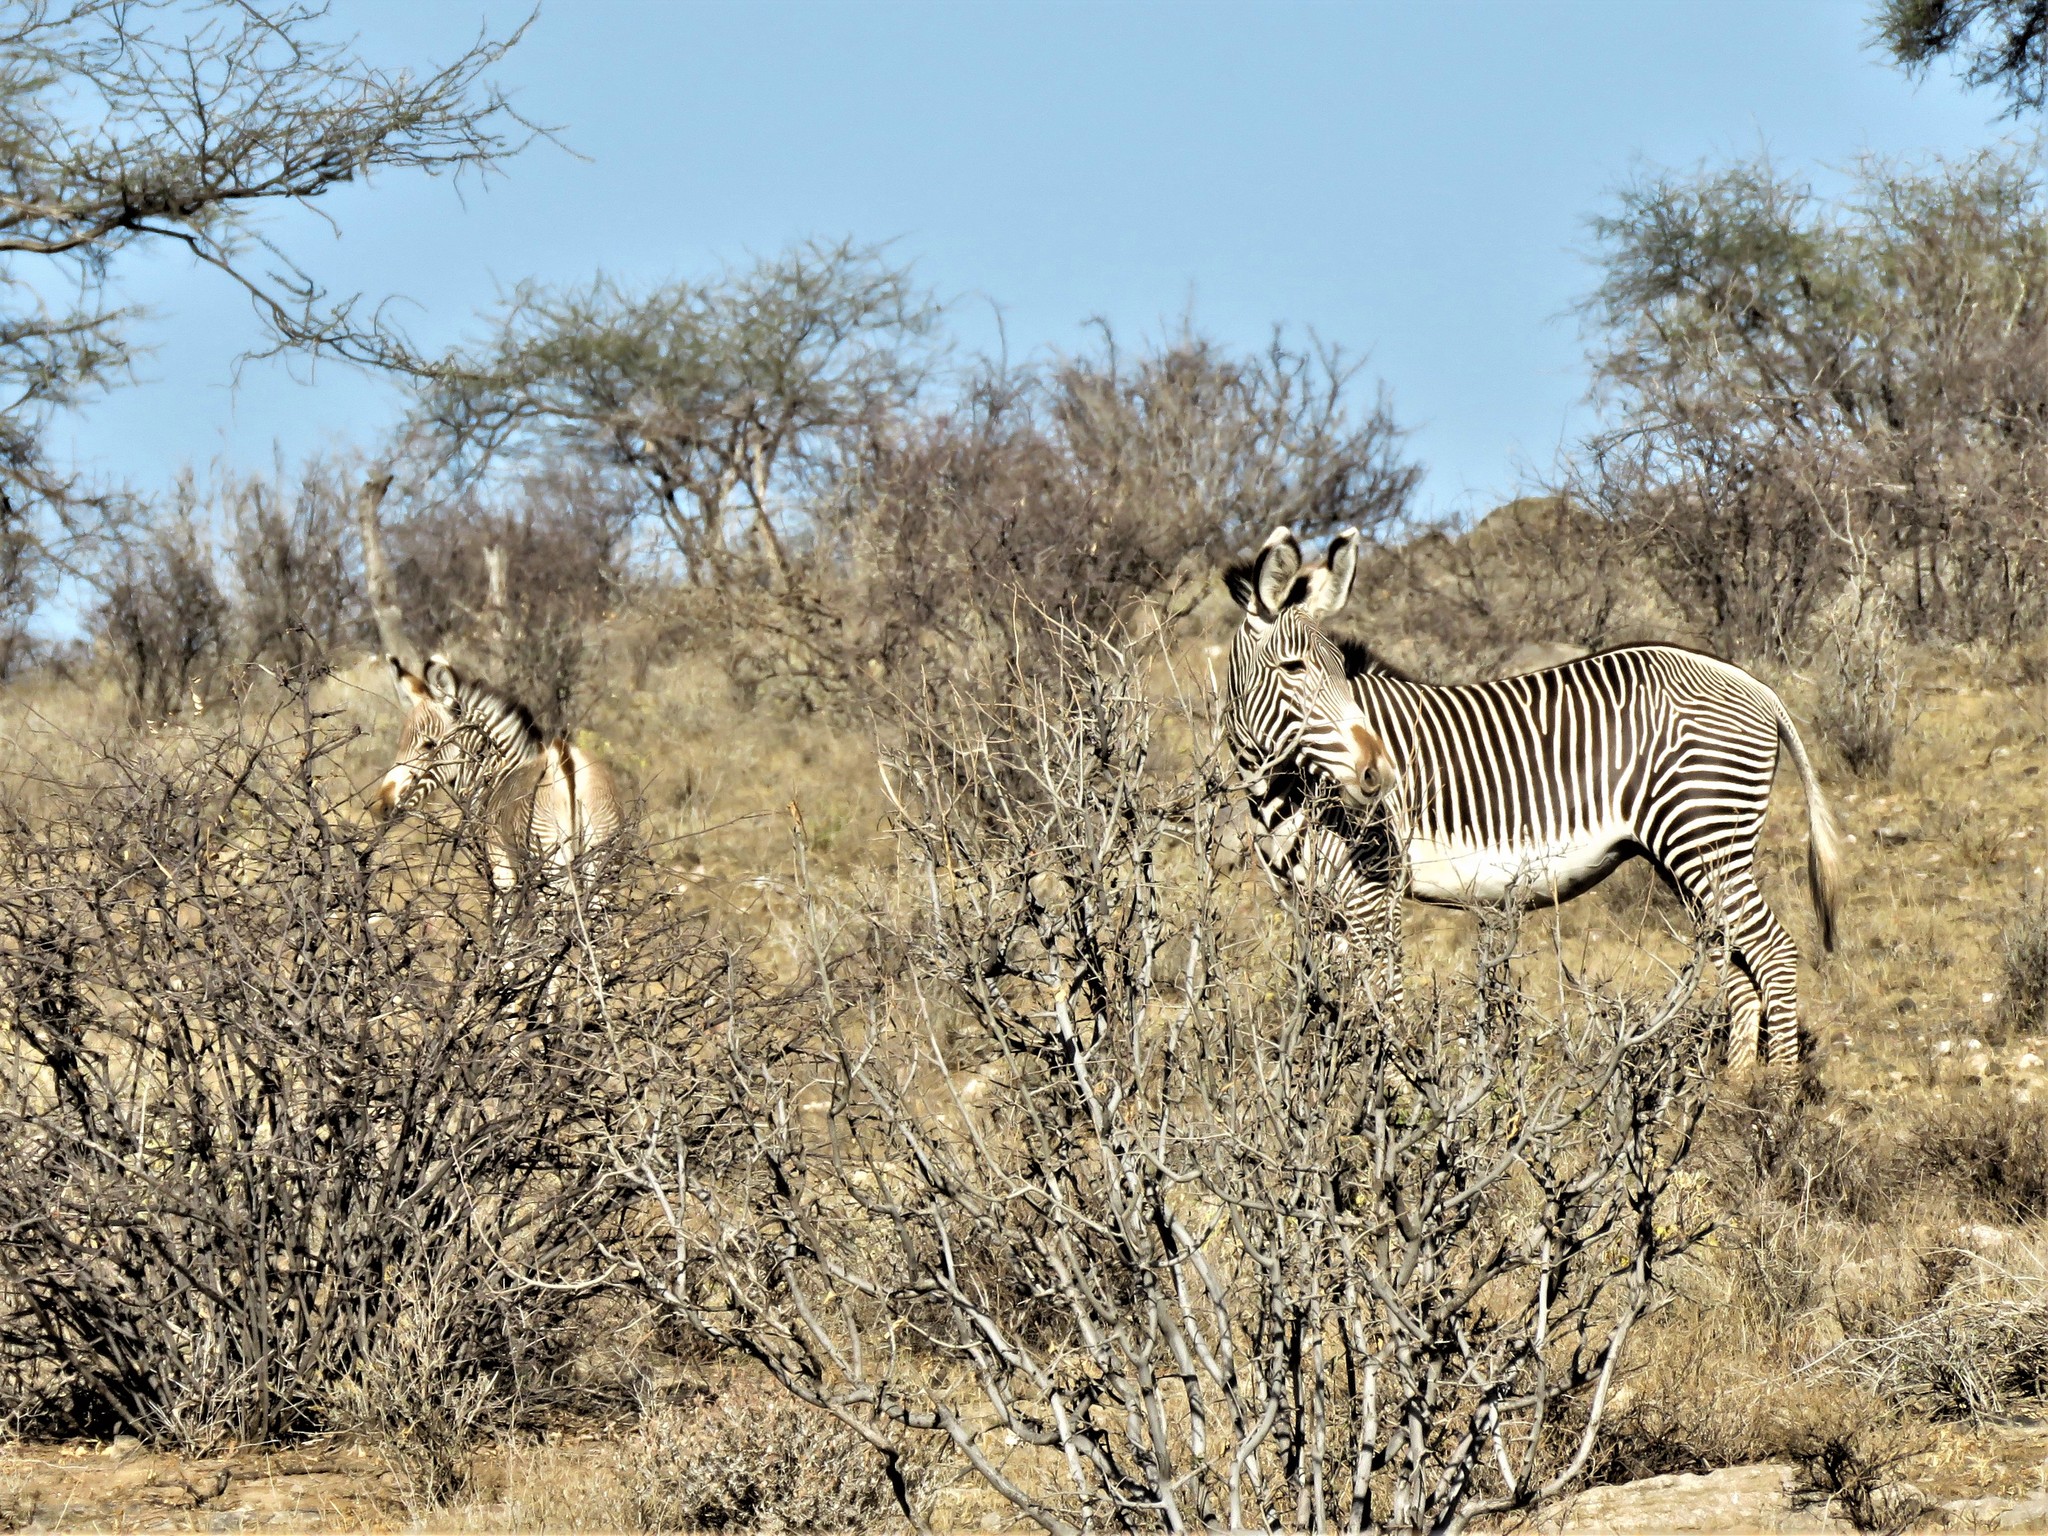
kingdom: Animalia
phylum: Chordata
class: Mammalia
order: Perissodactyla
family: Equidae
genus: Equus
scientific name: Equus grevyi
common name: Grevy's zebra
